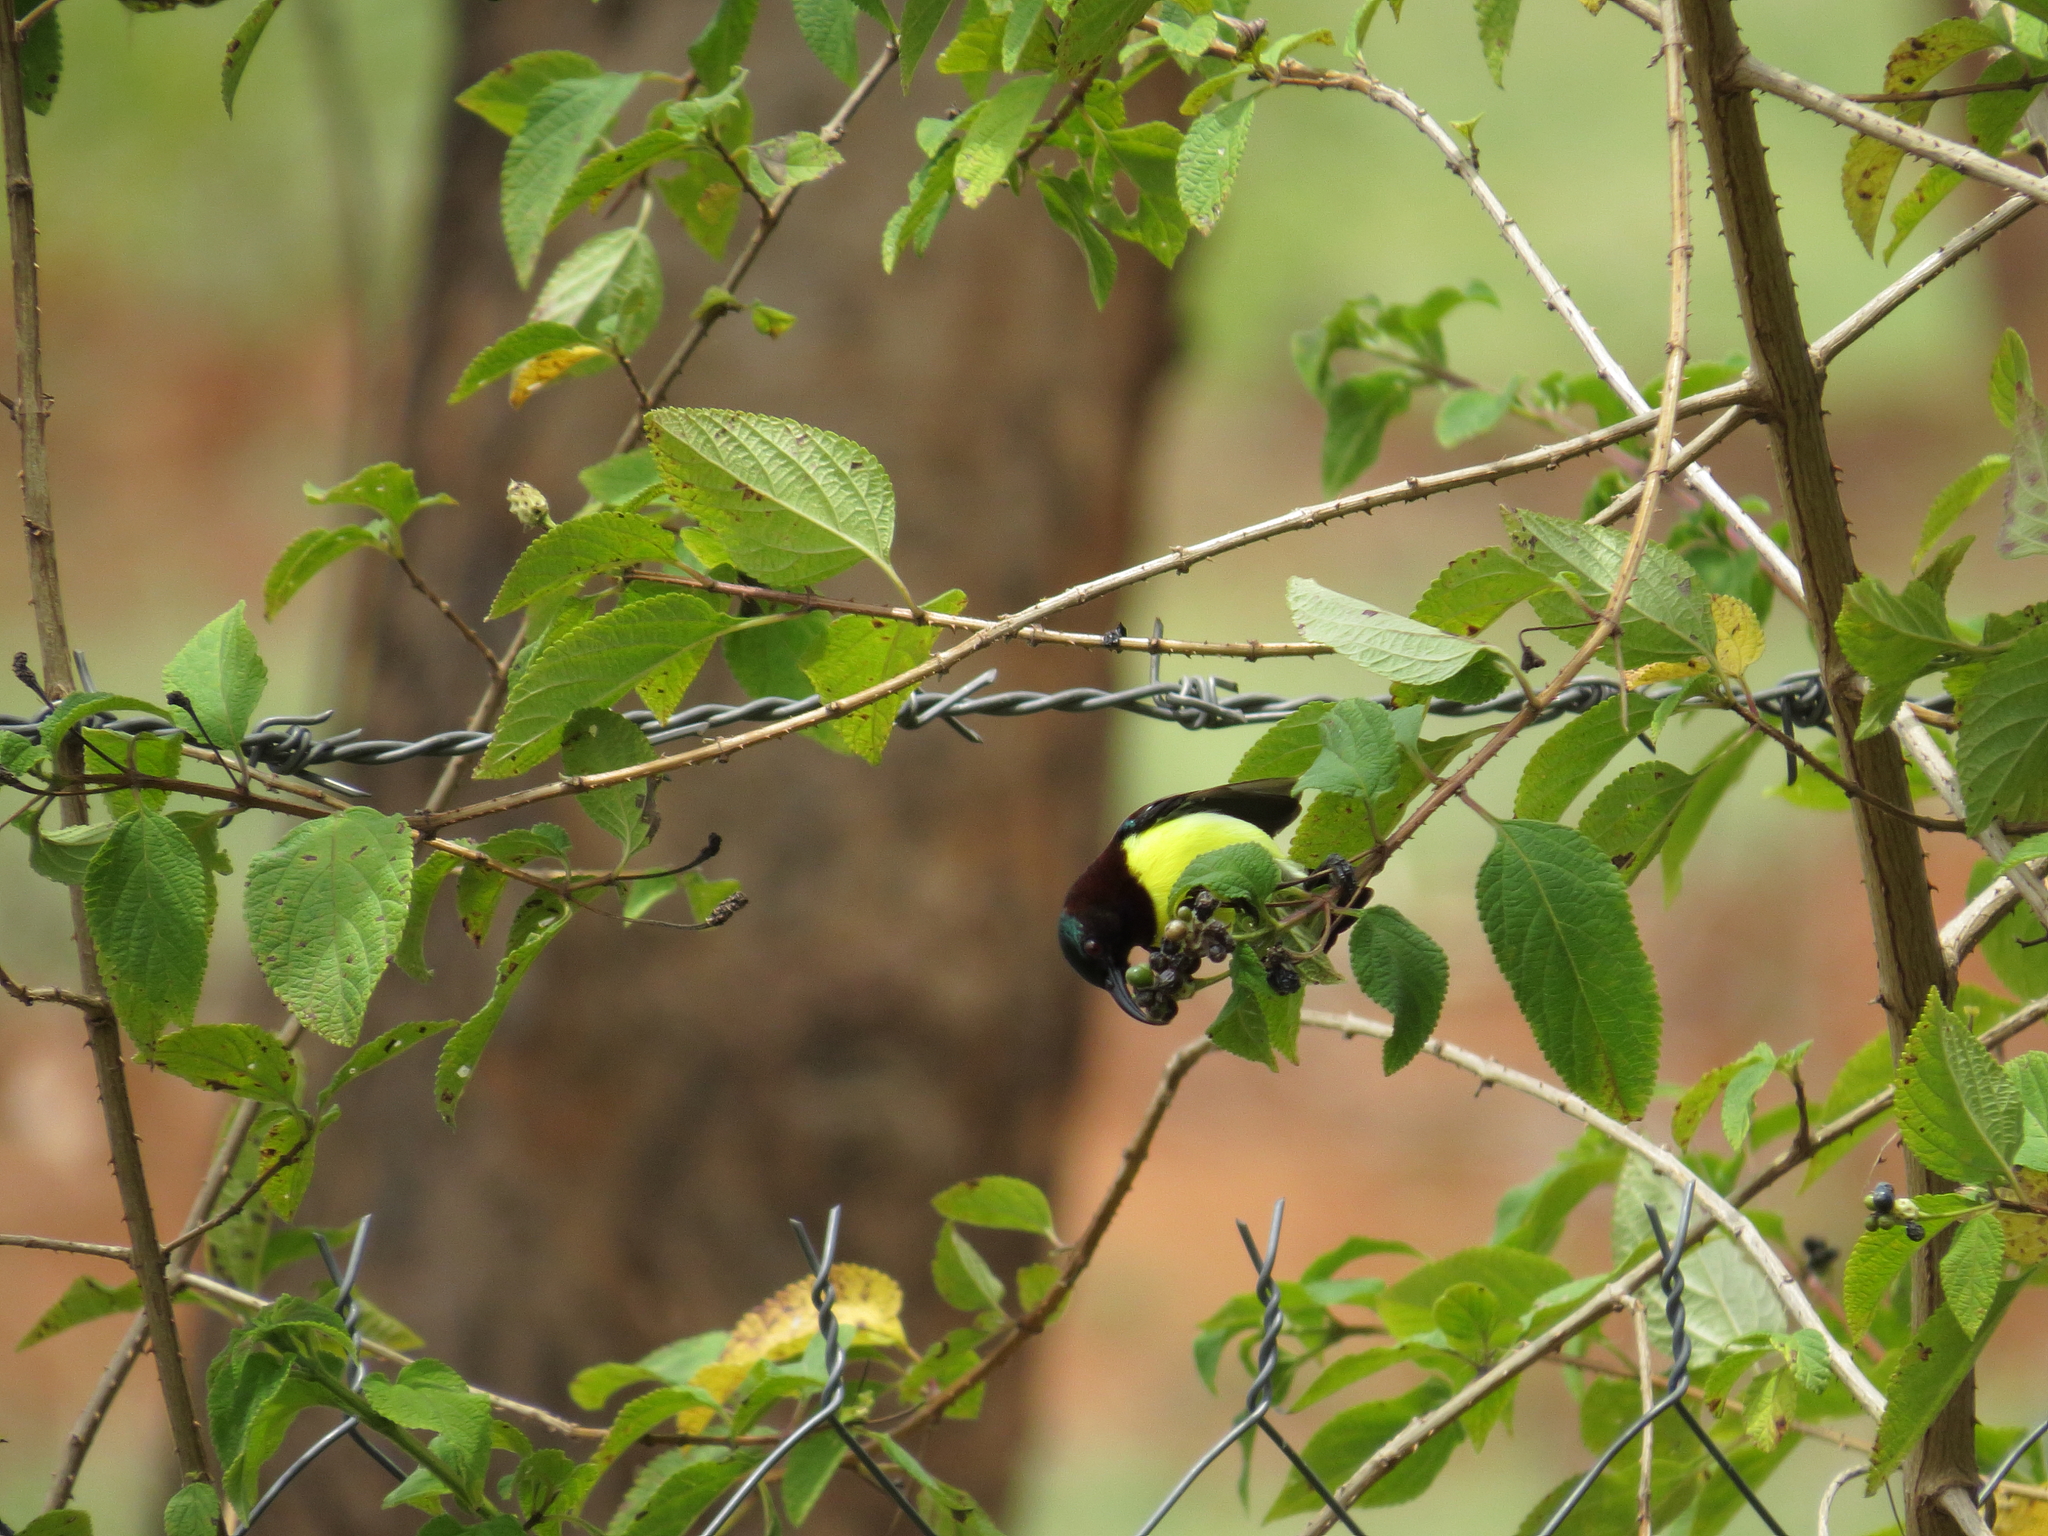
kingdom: Animalia
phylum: Chordata
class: Aves
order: Passeriformes
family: Nectariniidae
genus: Leptocoma
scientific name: Leptocoma zeylonica
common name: Purple-rumped sunbird
